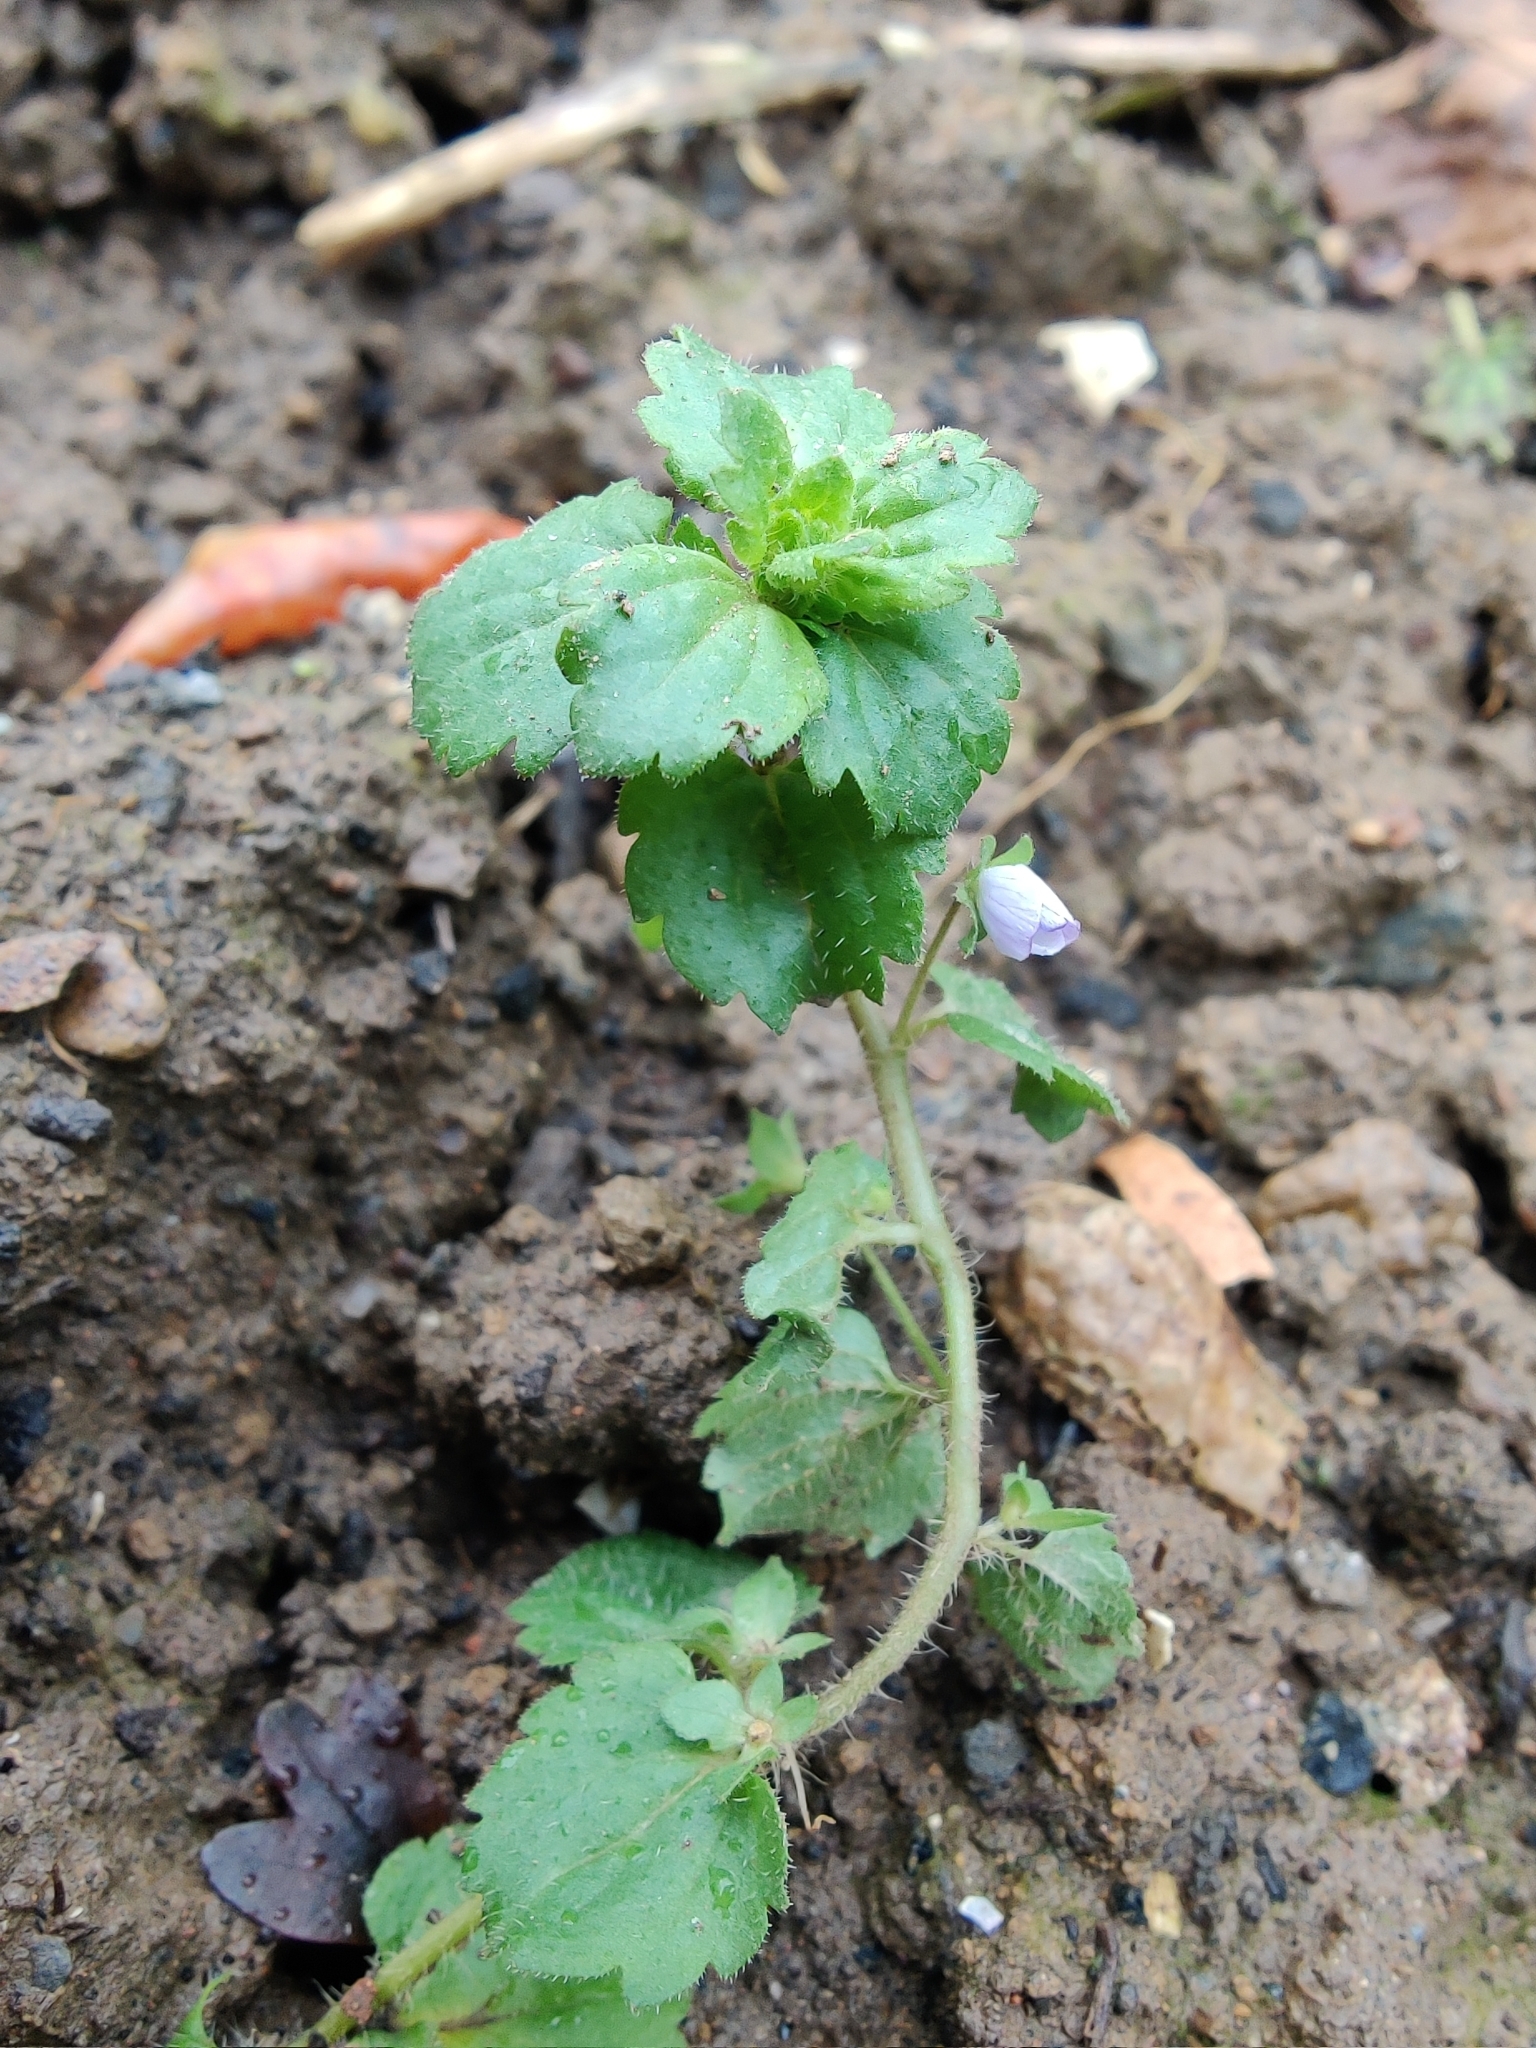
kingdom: Plantae
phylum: Tracheophyta
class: Magnoliopsida
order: Lamiales
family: Plantaginaceae
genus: Veronica
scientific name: Veronica persica
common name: Common field-speedwell
